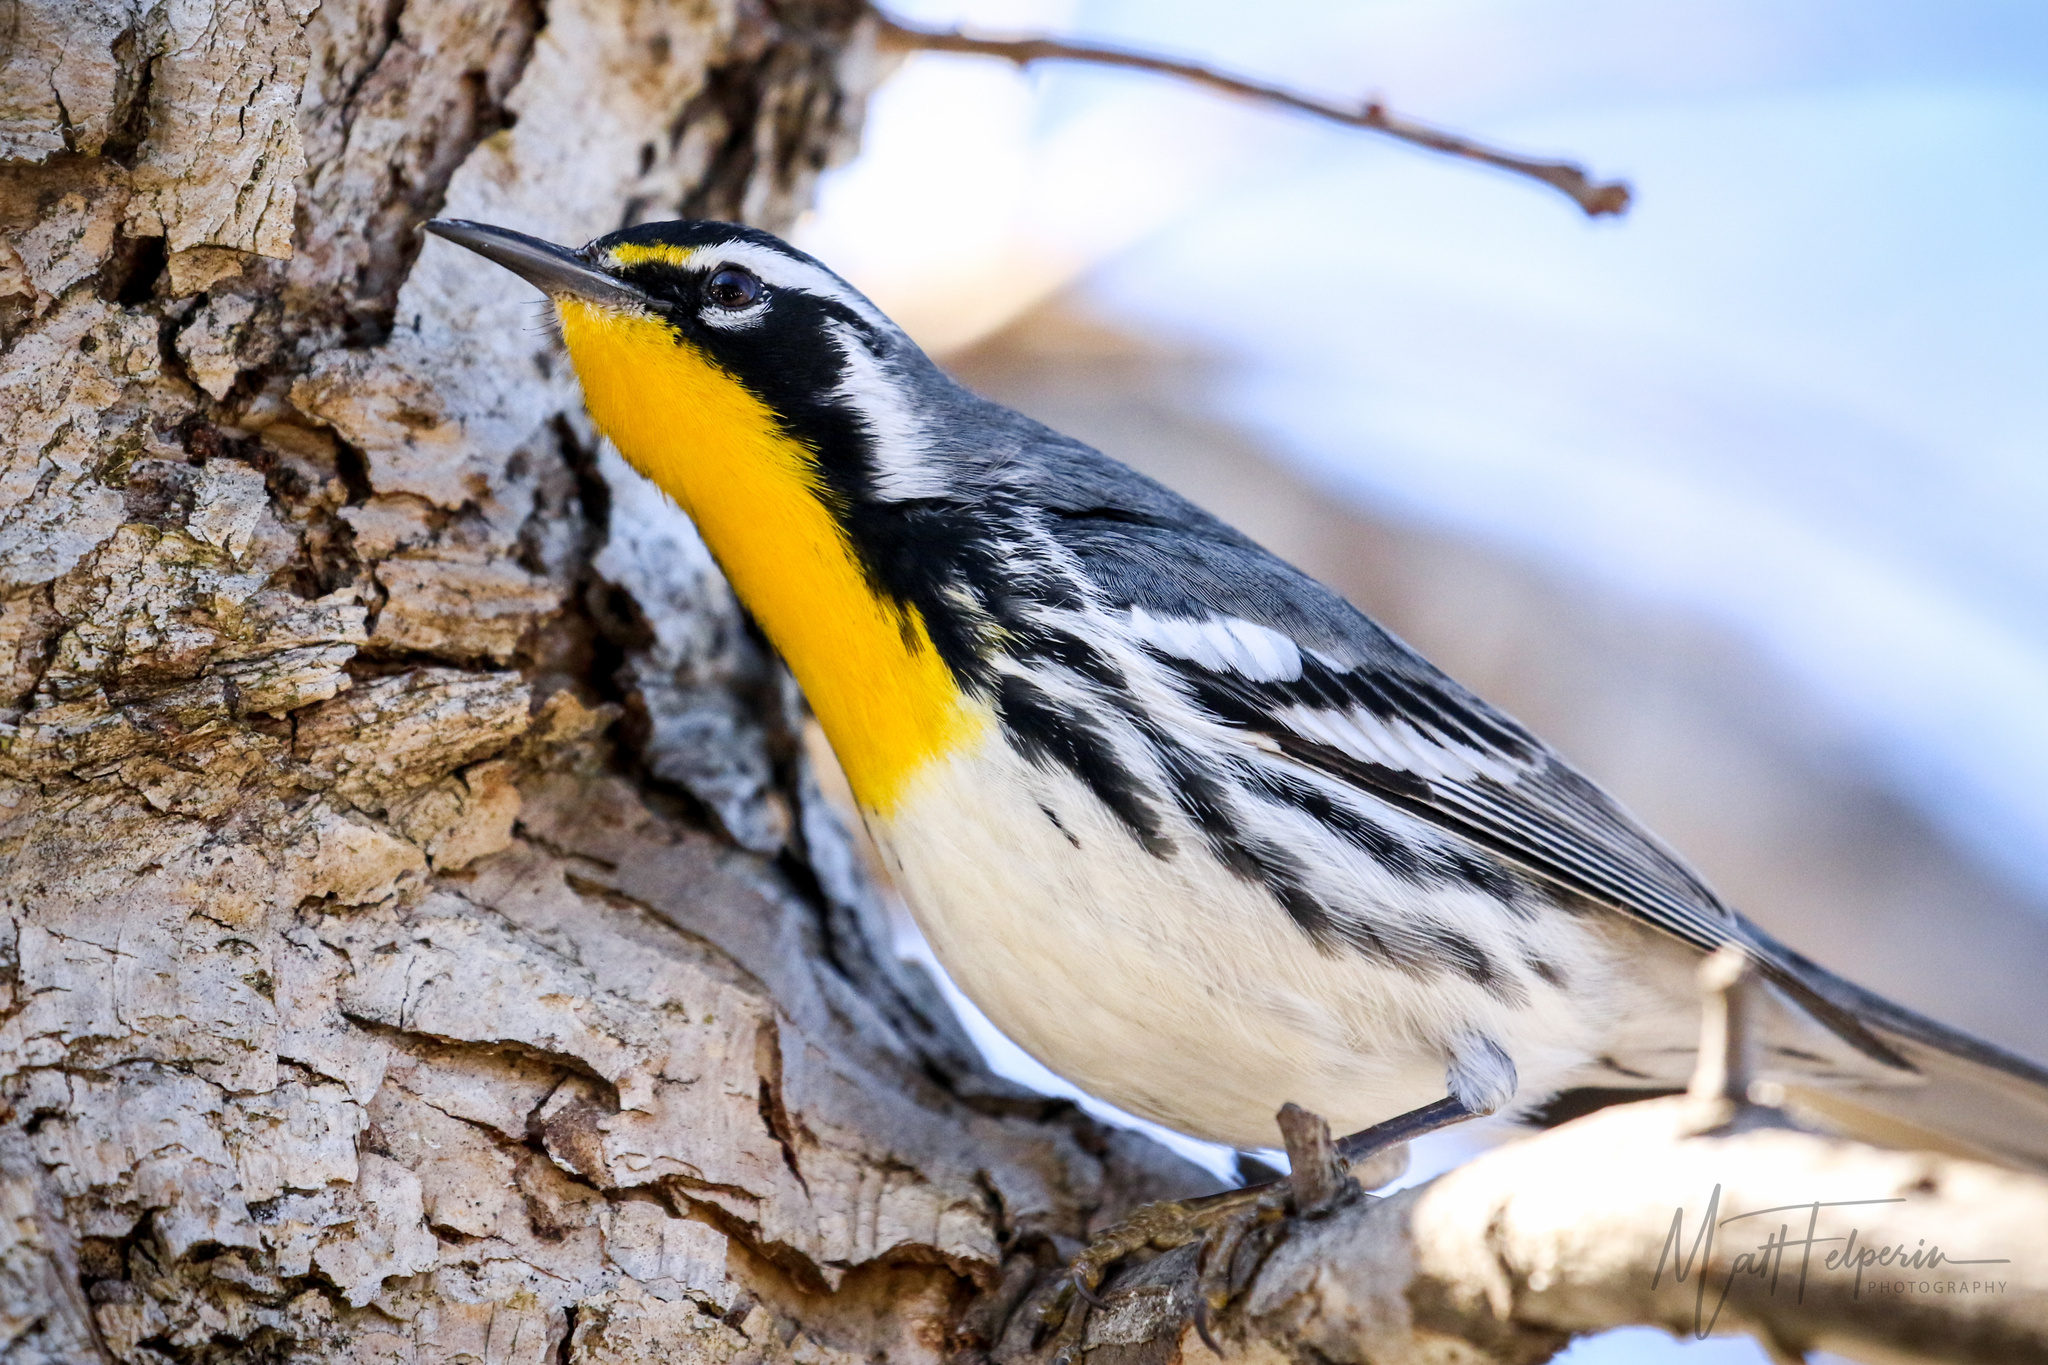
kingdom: Animalia
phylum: Chordata
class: Aves
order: Passeriformes
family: Parulidae
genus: Setophaga
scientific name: Setophaga dominica
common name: Yellow-throated warbler
